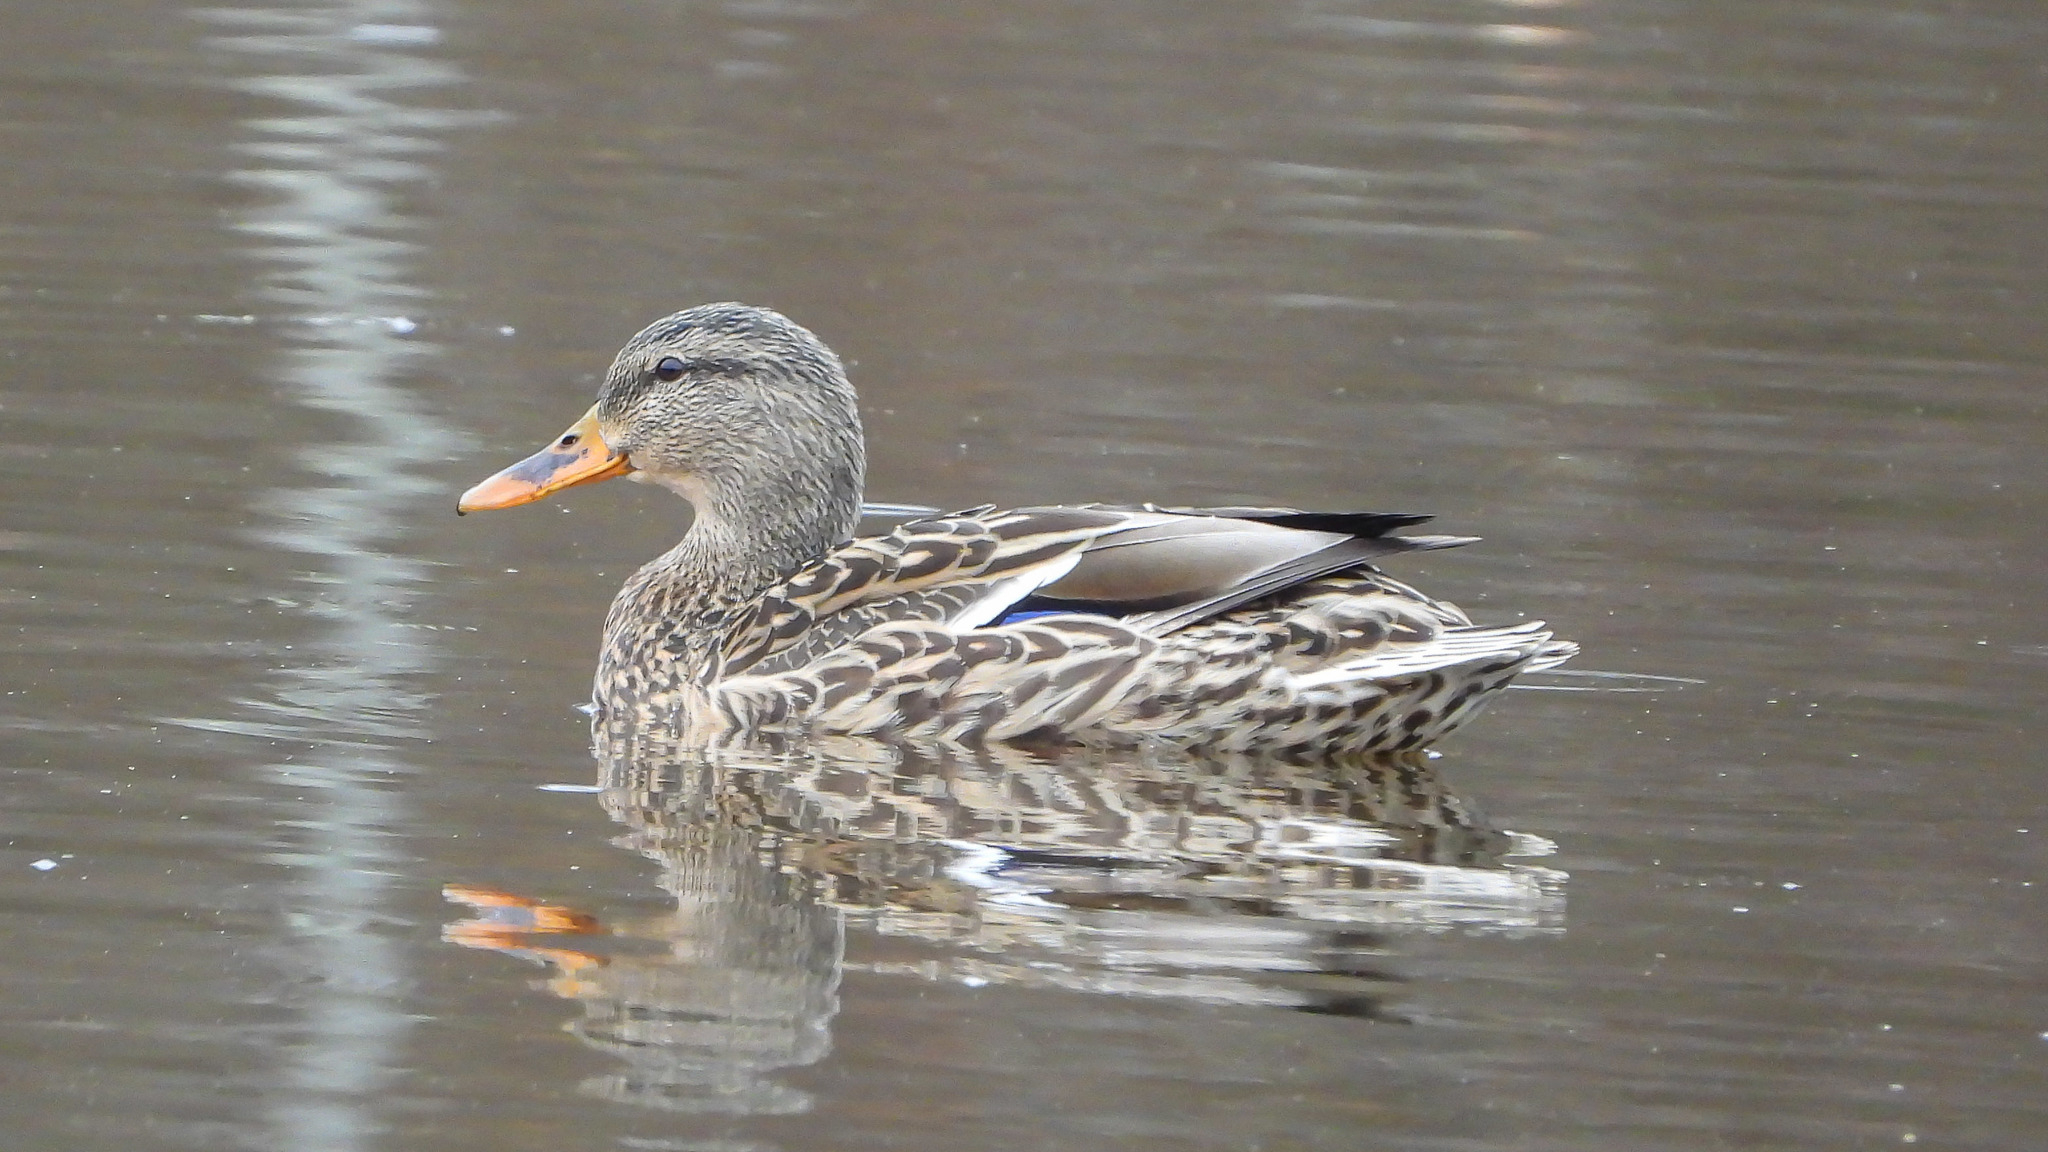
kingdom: Animalia
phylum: Chordata
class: Aves
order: Anseriformes
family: Anatidae
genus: Anas
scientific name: Anas platyrhynchos
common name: Mallard
